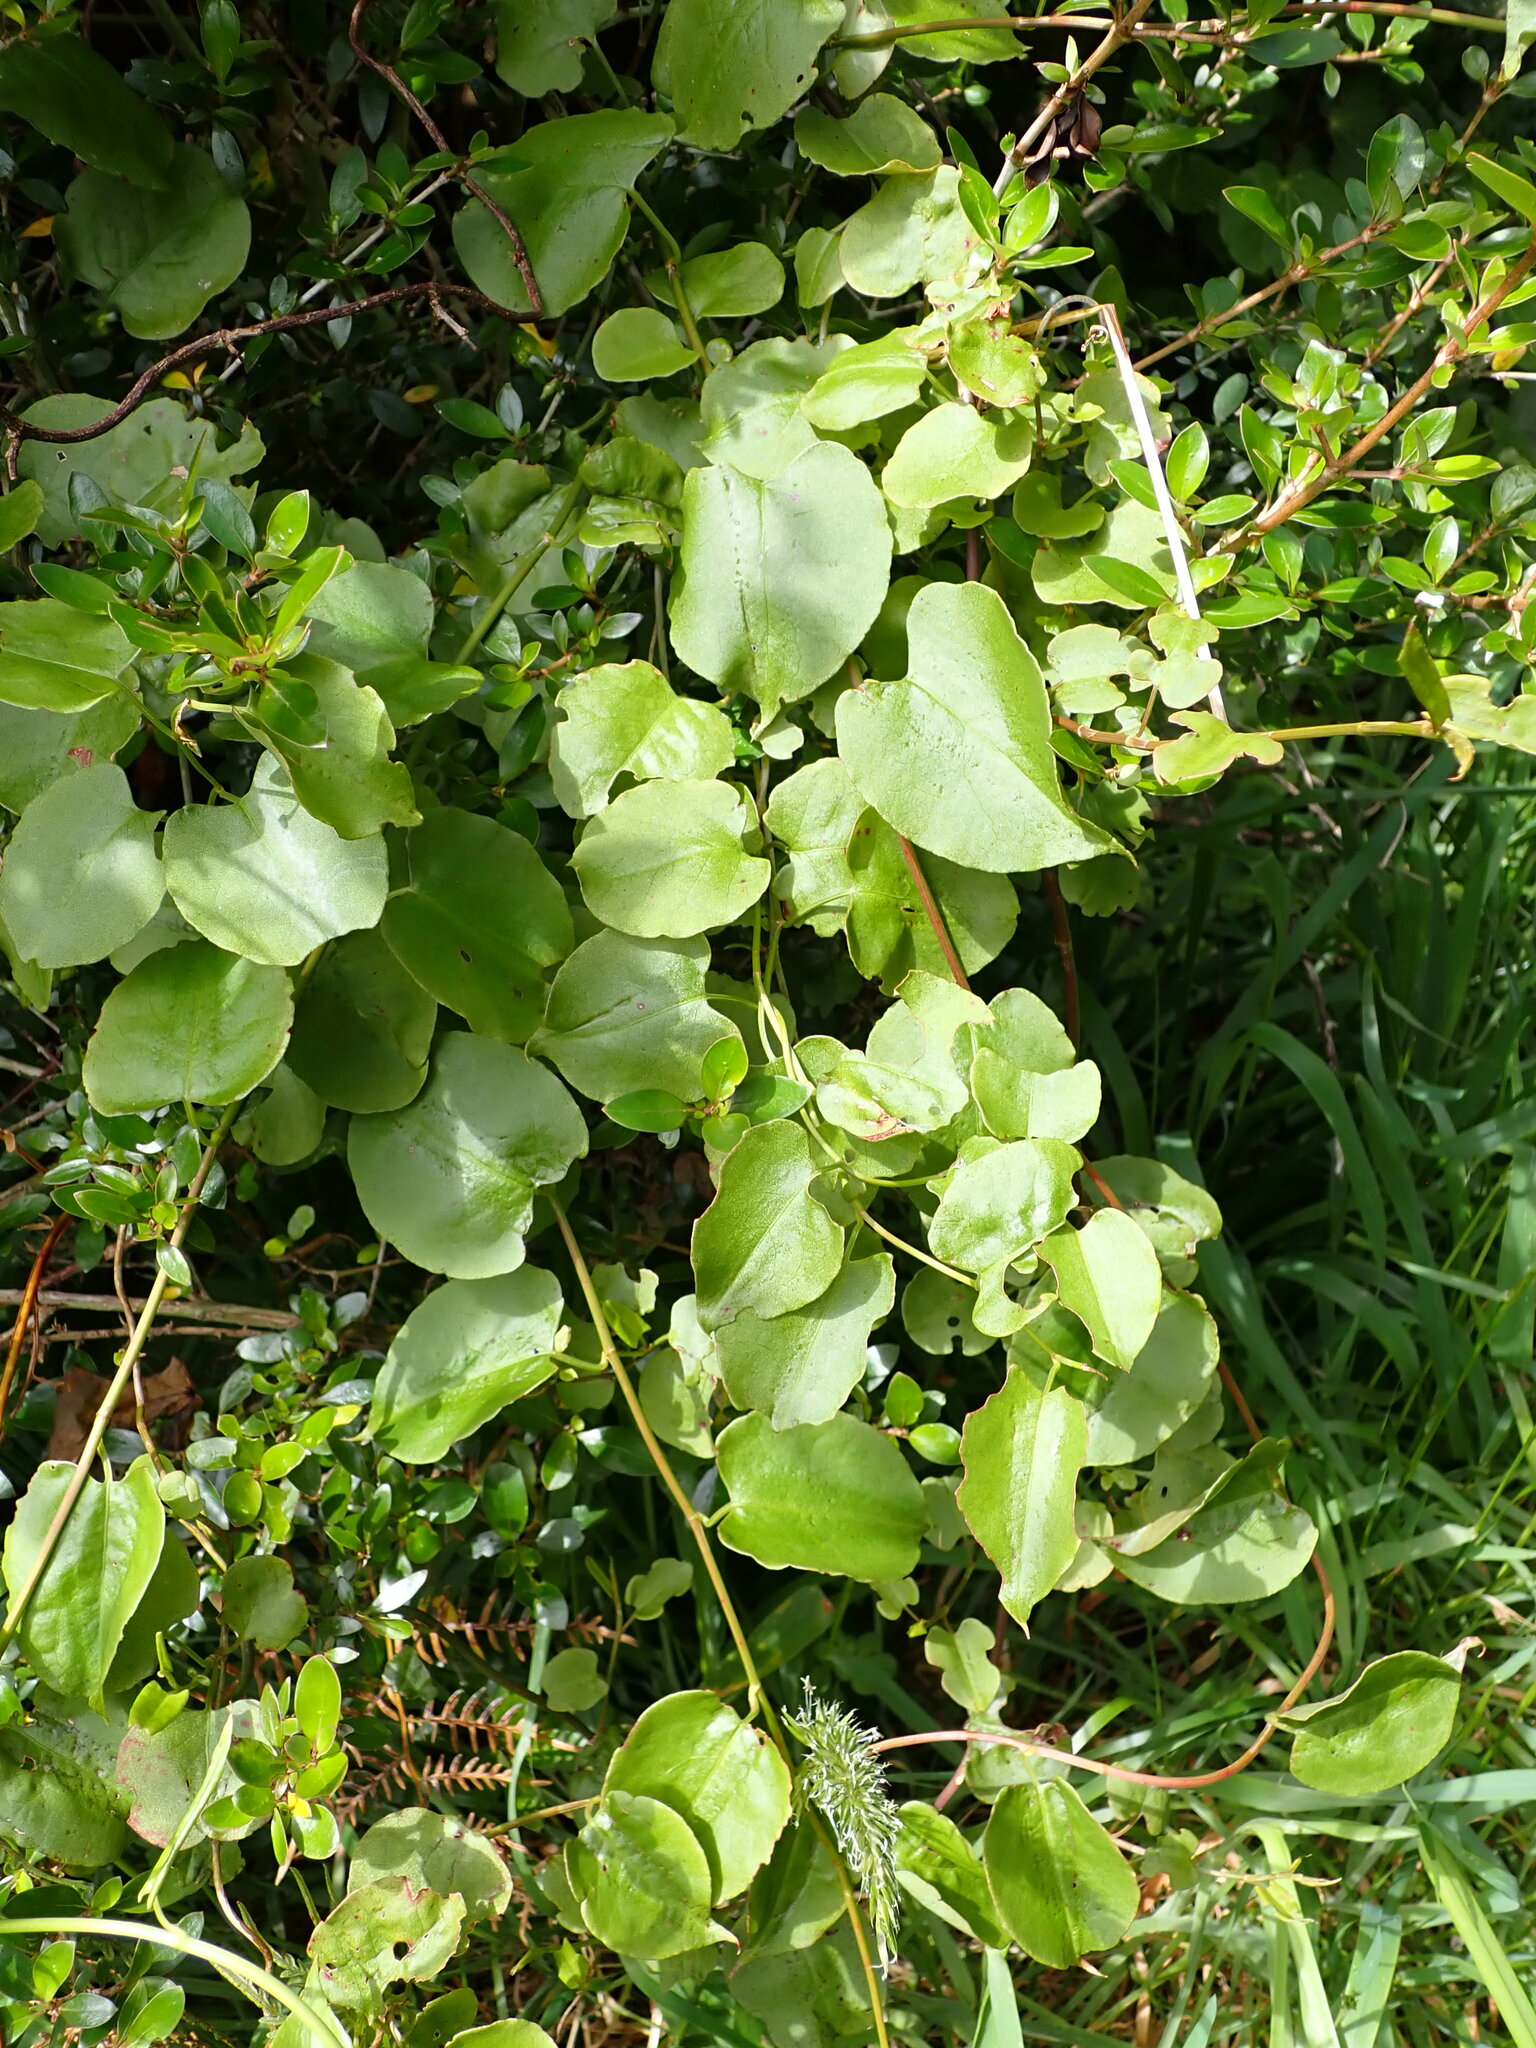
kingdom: Plantae
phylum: Tracheophyta
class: Magnoliopsida
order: Caryophyllales
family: Polygonaceae
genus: Muehlenbeckia
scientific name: Muehlenbeckia australis
